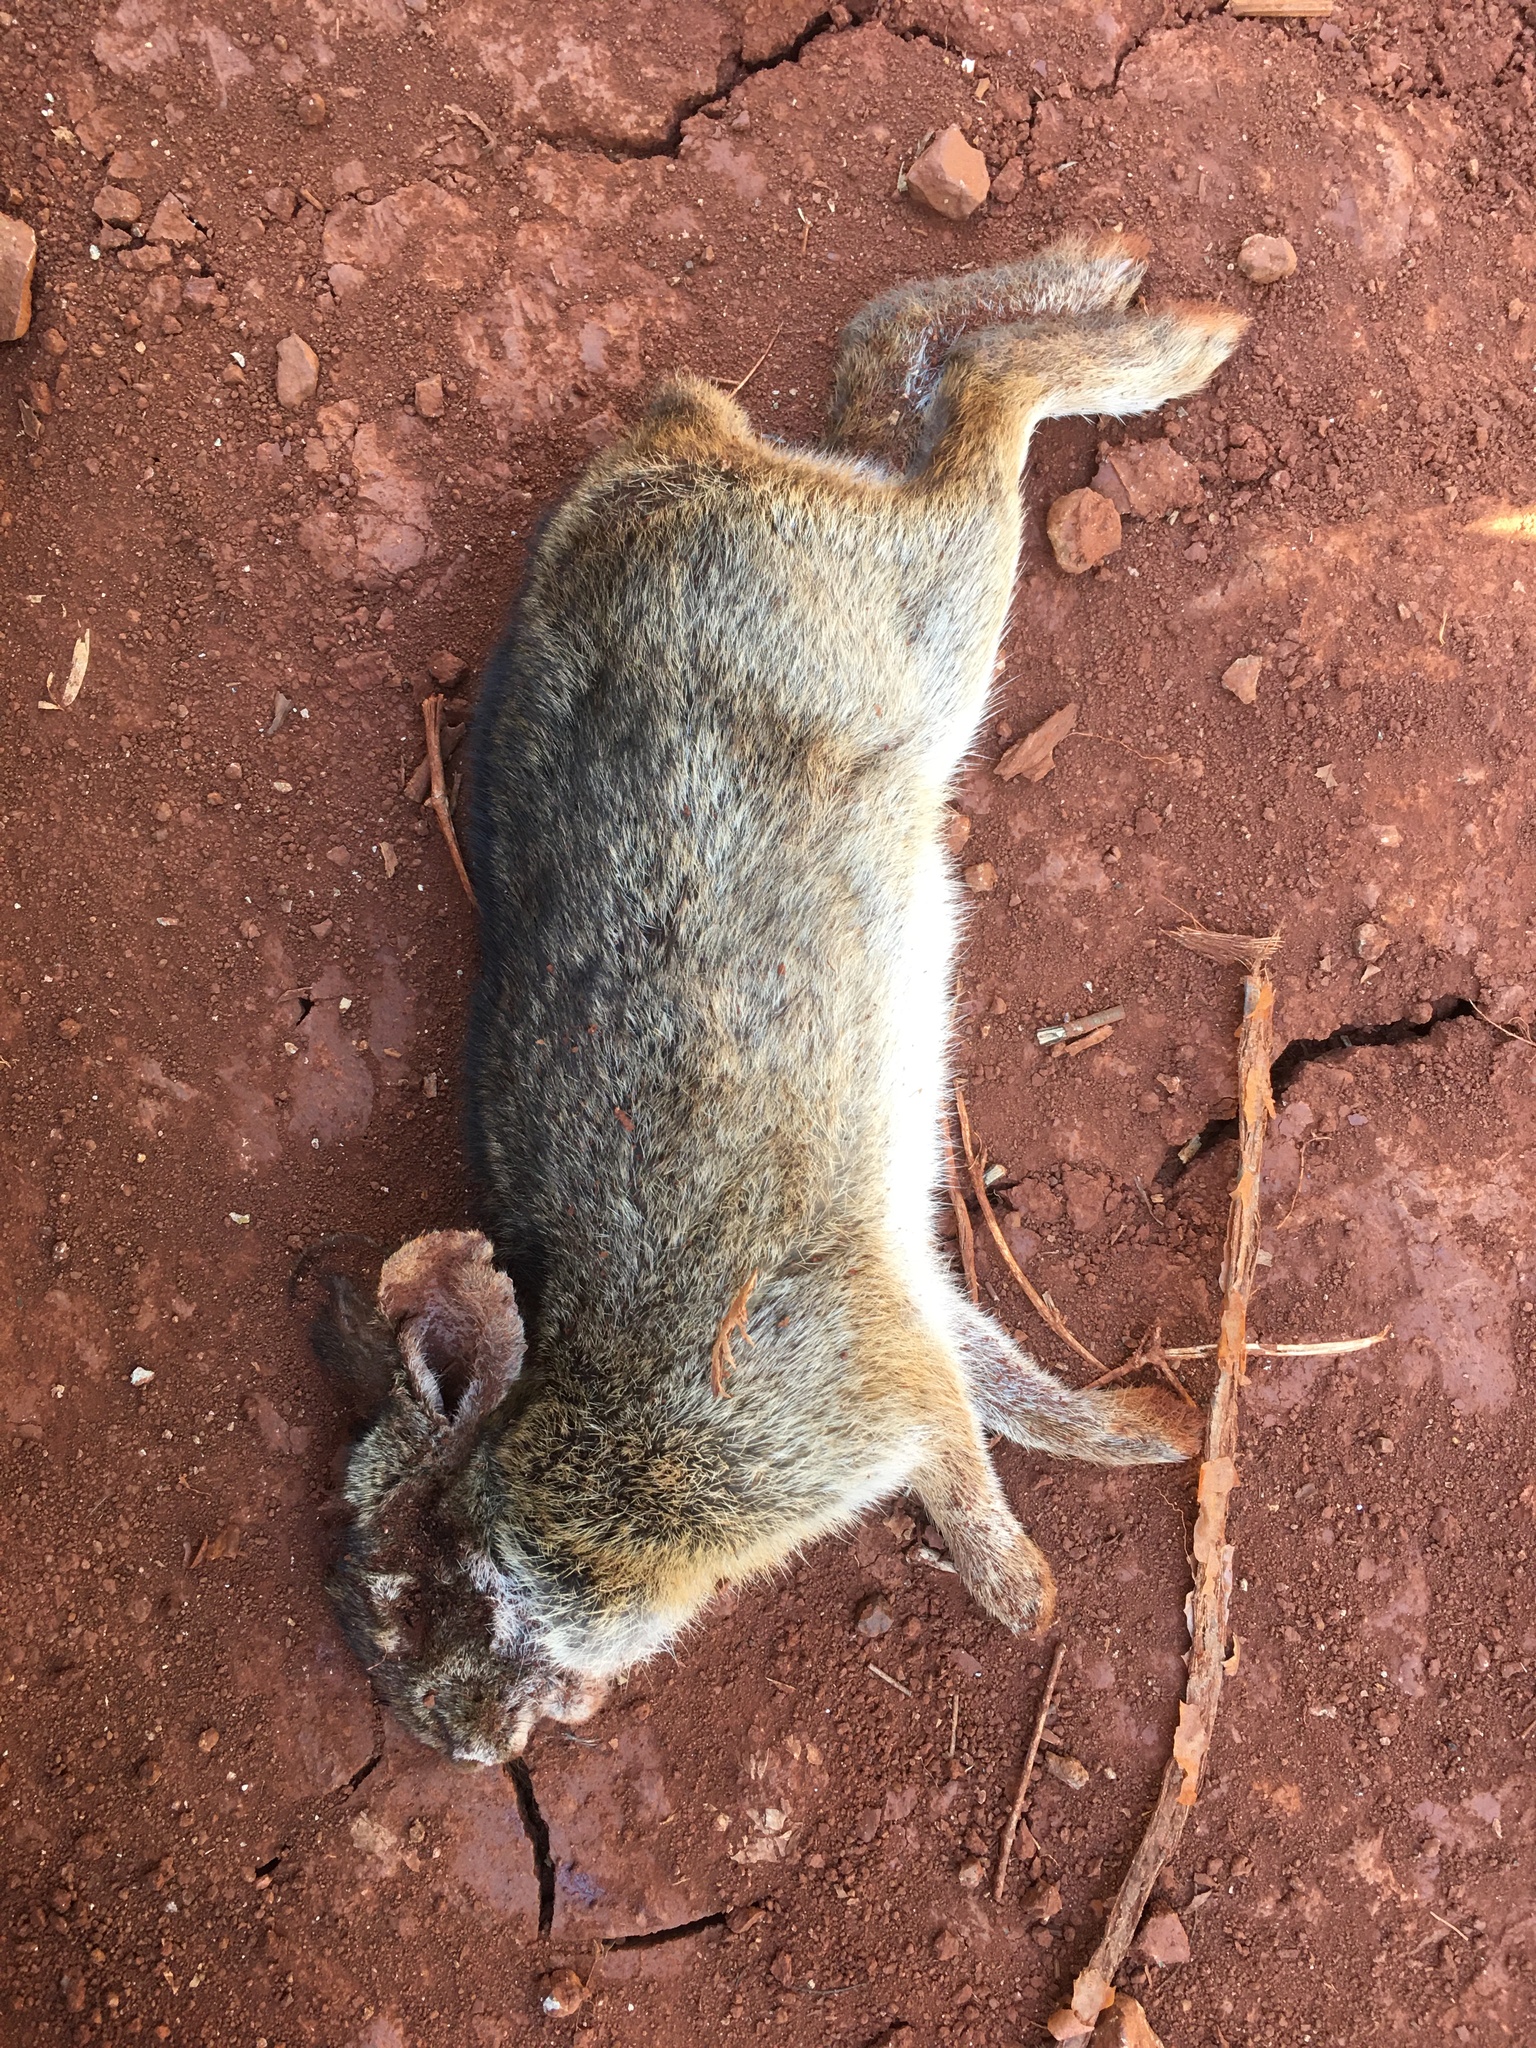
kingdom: Animalia
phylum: Chordata
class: Mammalia
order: Lagomorpha
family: Leporidae
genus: Sylvilagus
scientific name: Sylvilagus brasiliensis
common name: Tapeti
